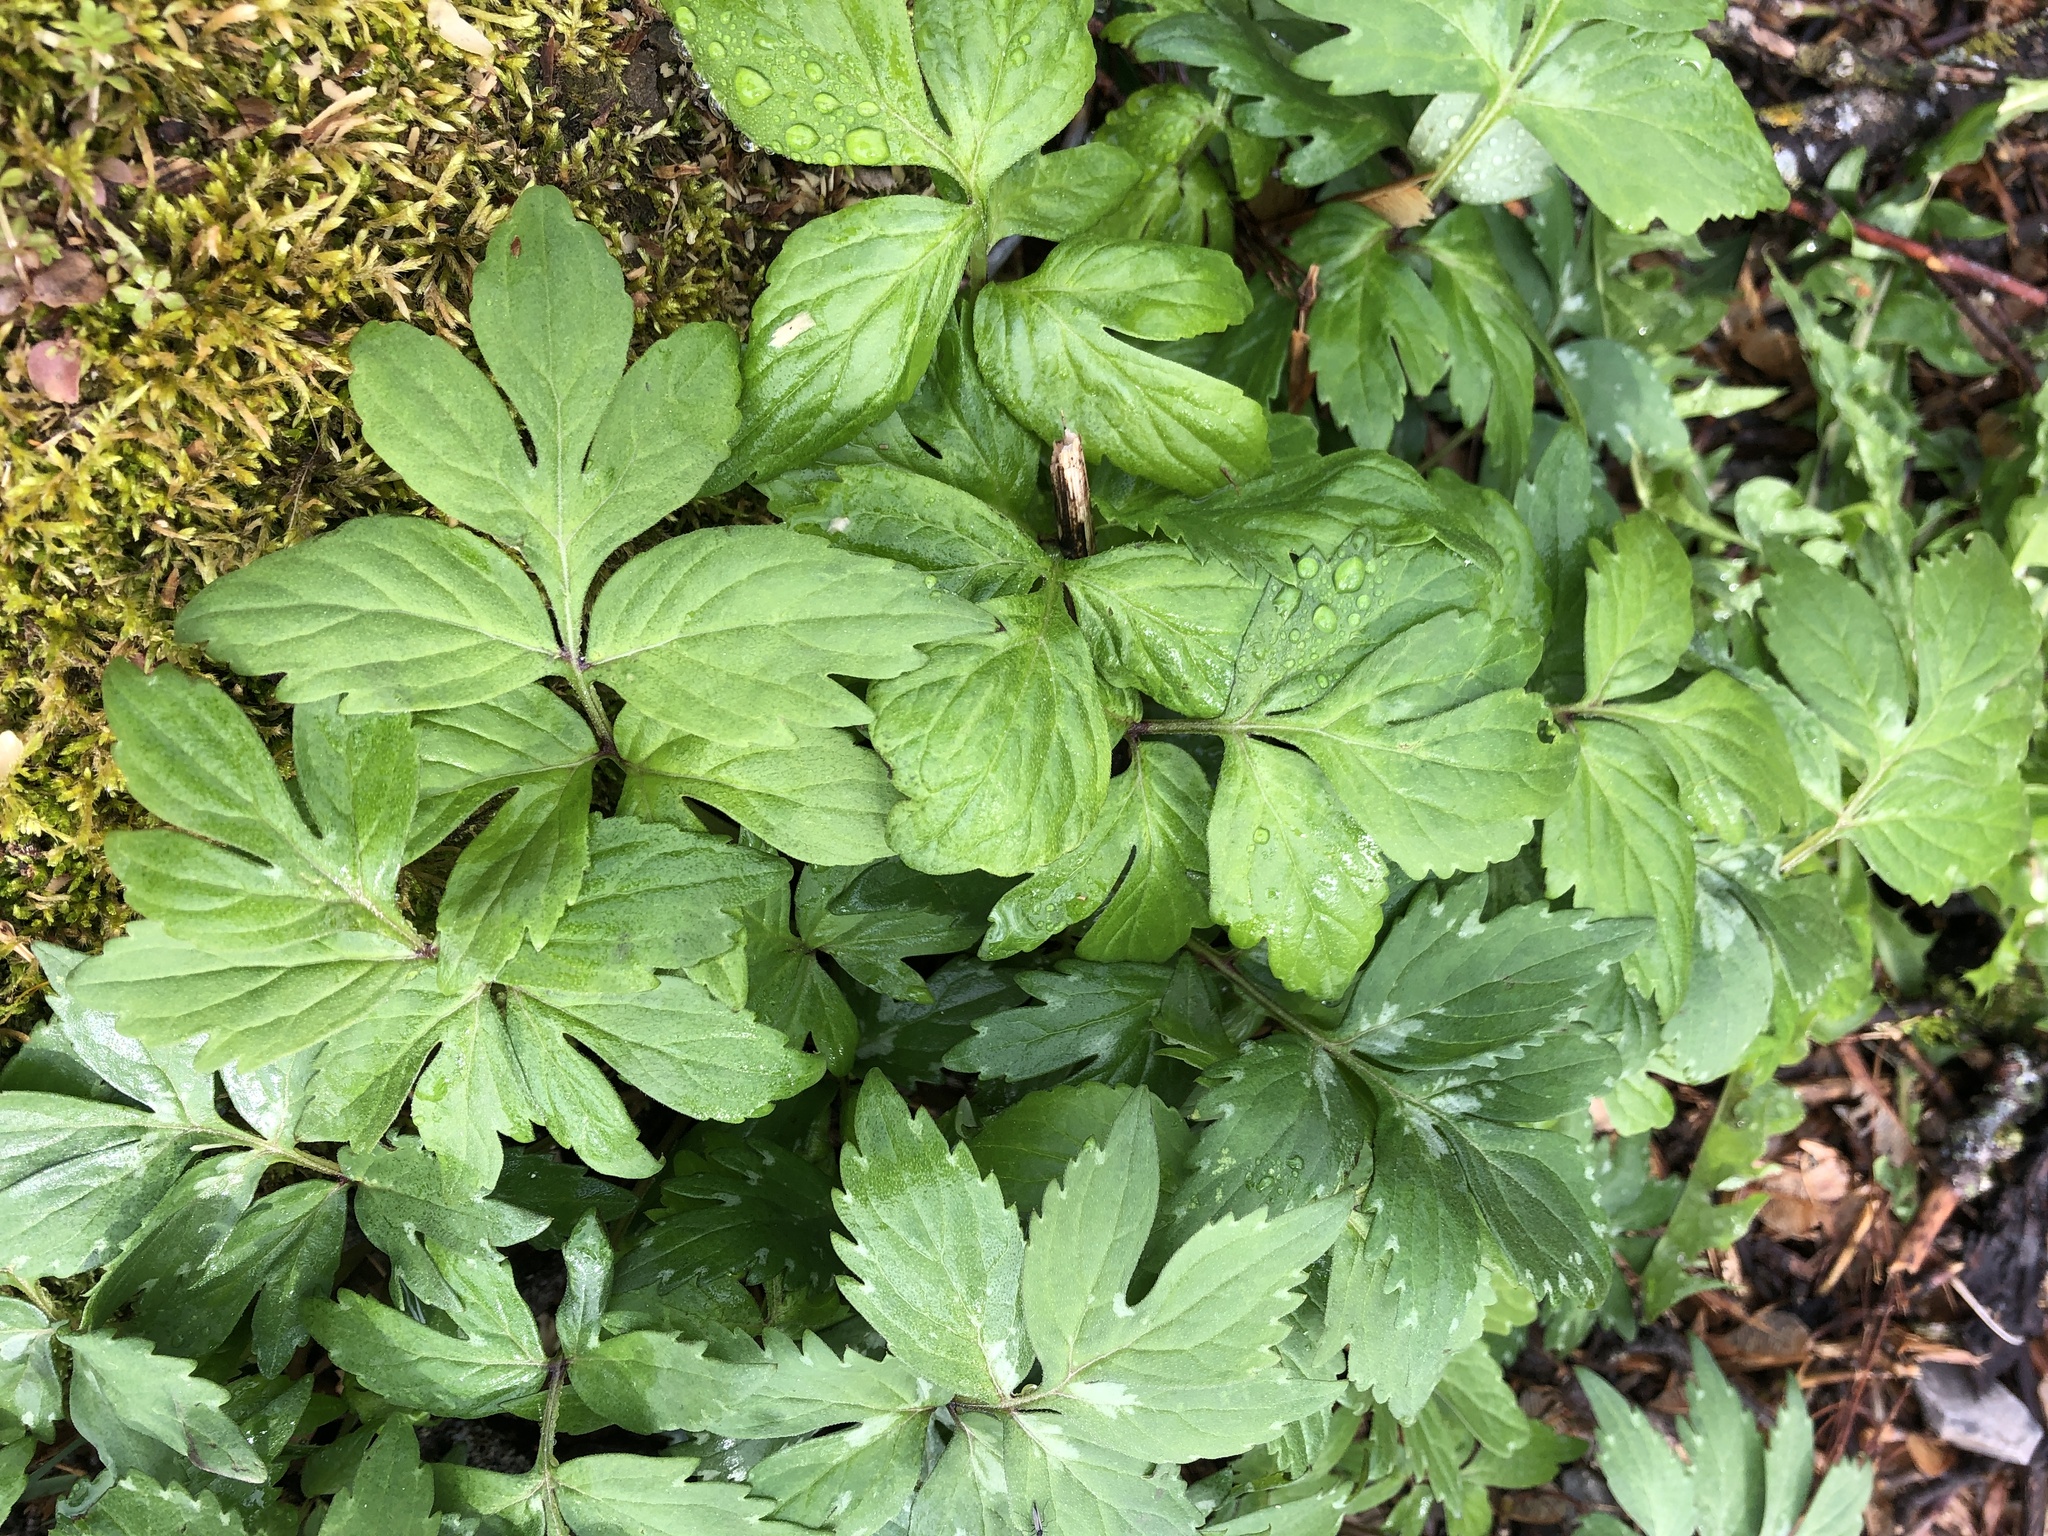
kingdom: Plantae
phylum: Tracheophyta
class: Magnoliopsida
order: Boraginales
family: Hydrophyllaceae
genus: Hydrophyllum
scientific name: Hydrophyllum virginianum
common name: Virginia waterleaf
